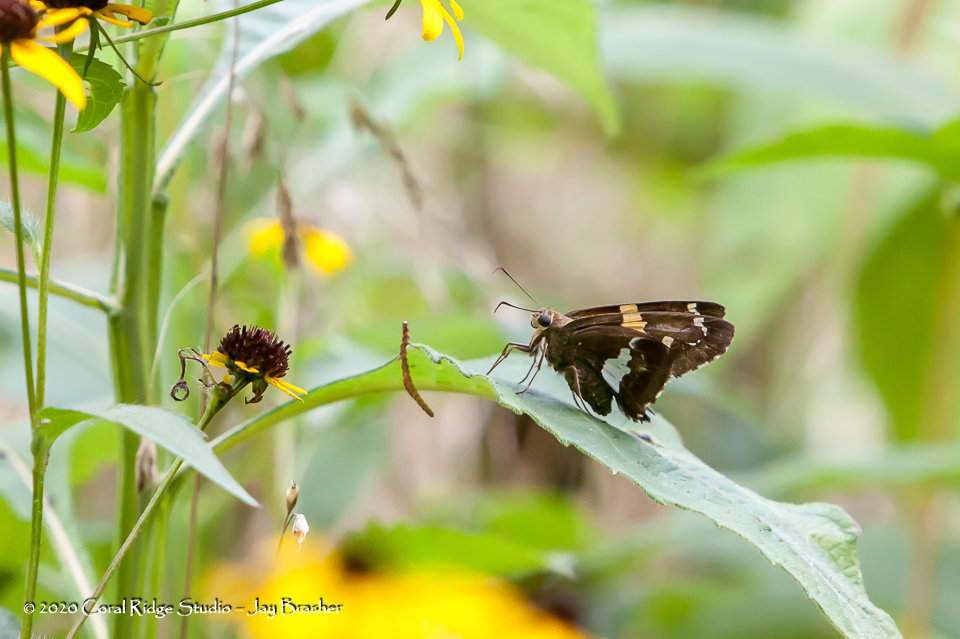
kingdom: Animalia
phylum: Arthropoda
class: Insecta
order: Lepidoptera
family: Hesperiidae
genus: Epargyreus
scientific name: Epargyreus clarus
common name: Silver-spotted skipper
